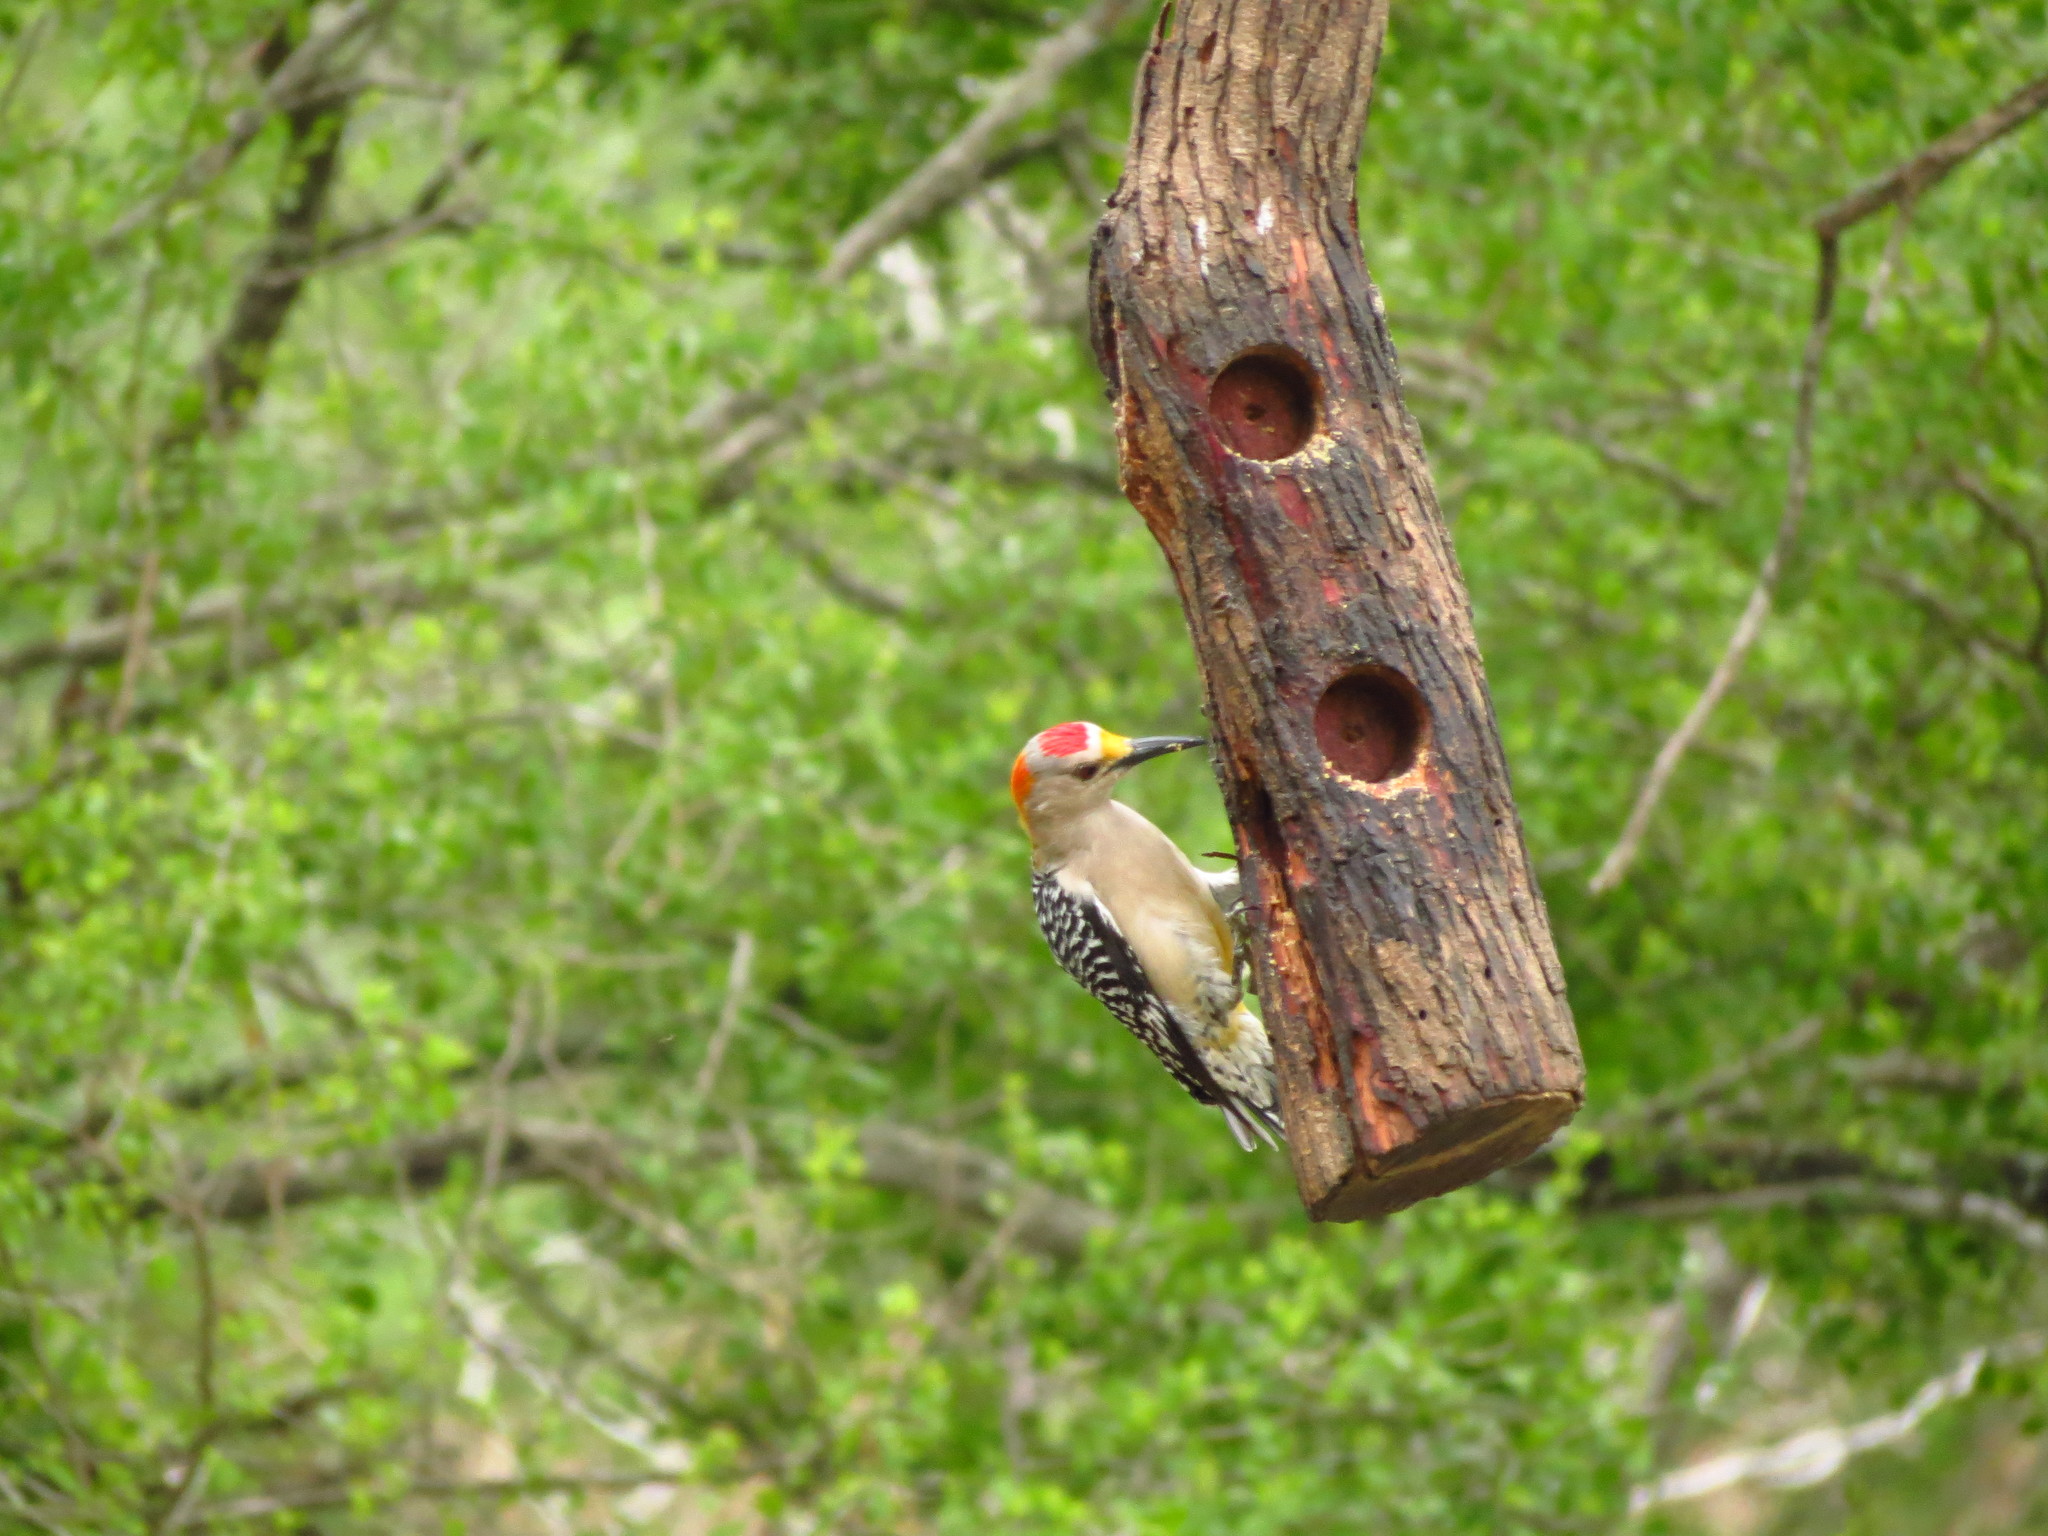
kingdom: Animalia
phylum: Chordata
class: Aves
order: Piciformes
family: Picidae
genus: Melanerpes
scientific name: Melanerpes aurifrons
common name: Golden-fronted woodpecker
